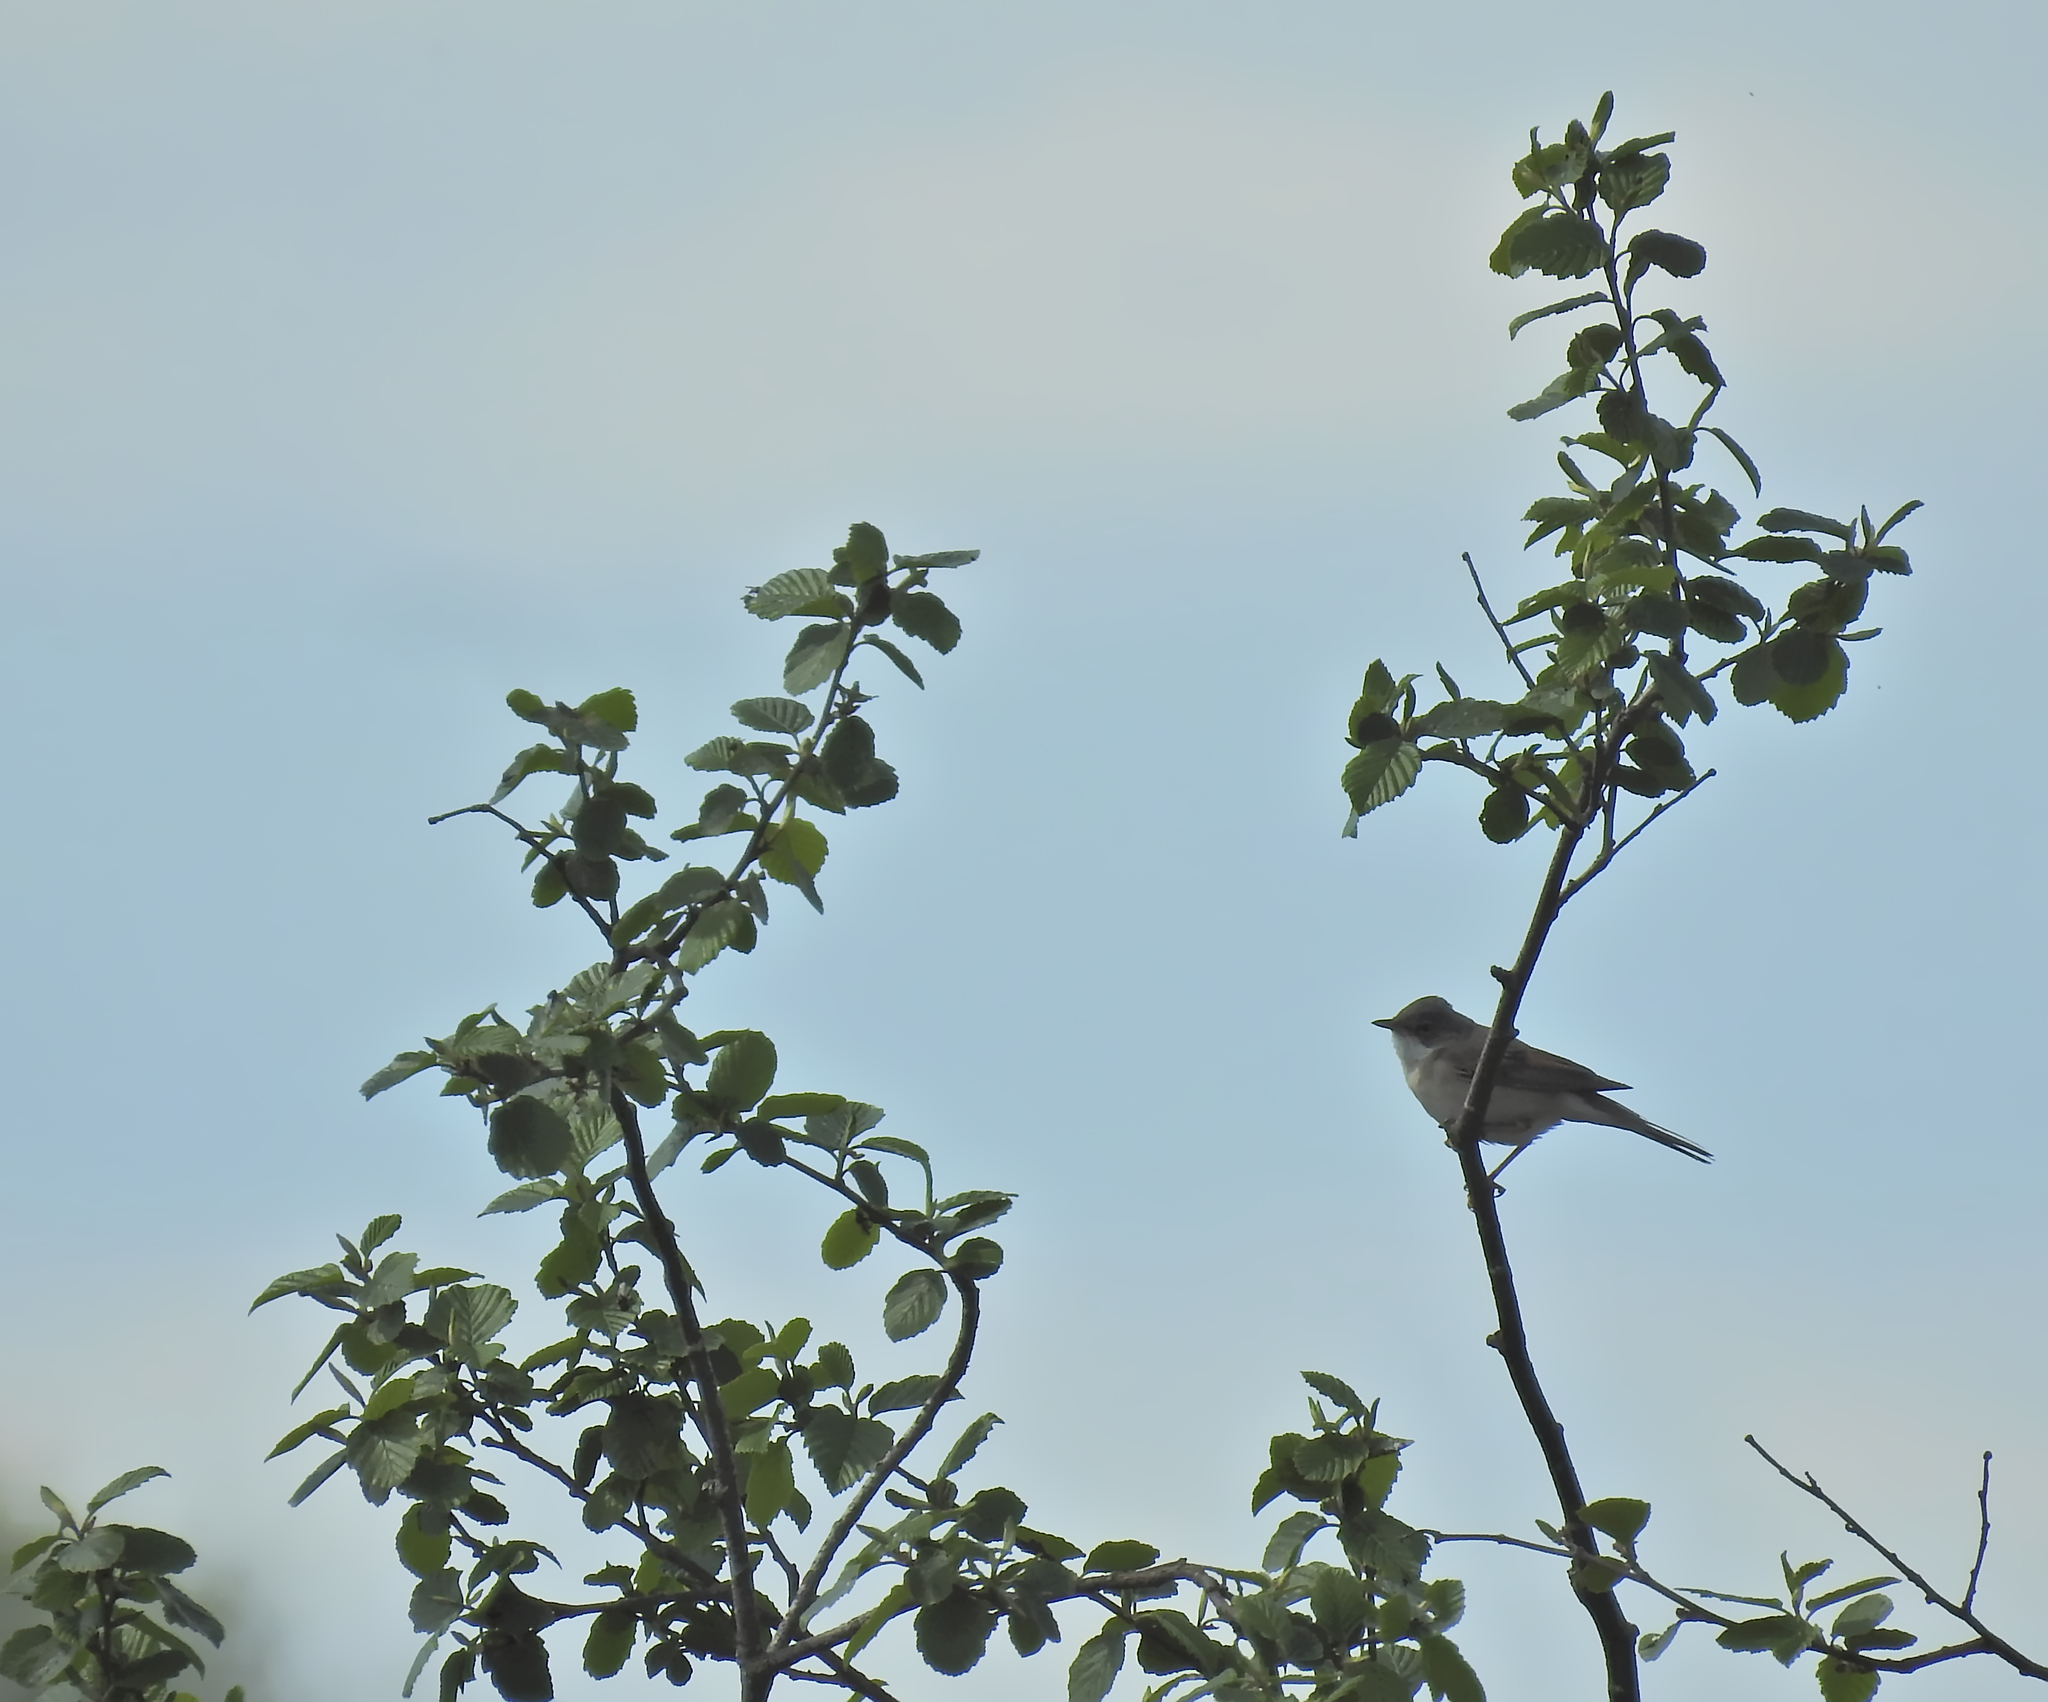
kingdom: Animalia
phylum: Chordata
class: Aves
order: Passeriformes
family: Sylviidae
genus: Sylvia
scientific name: Sylvia communis
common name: Common whitethroat
